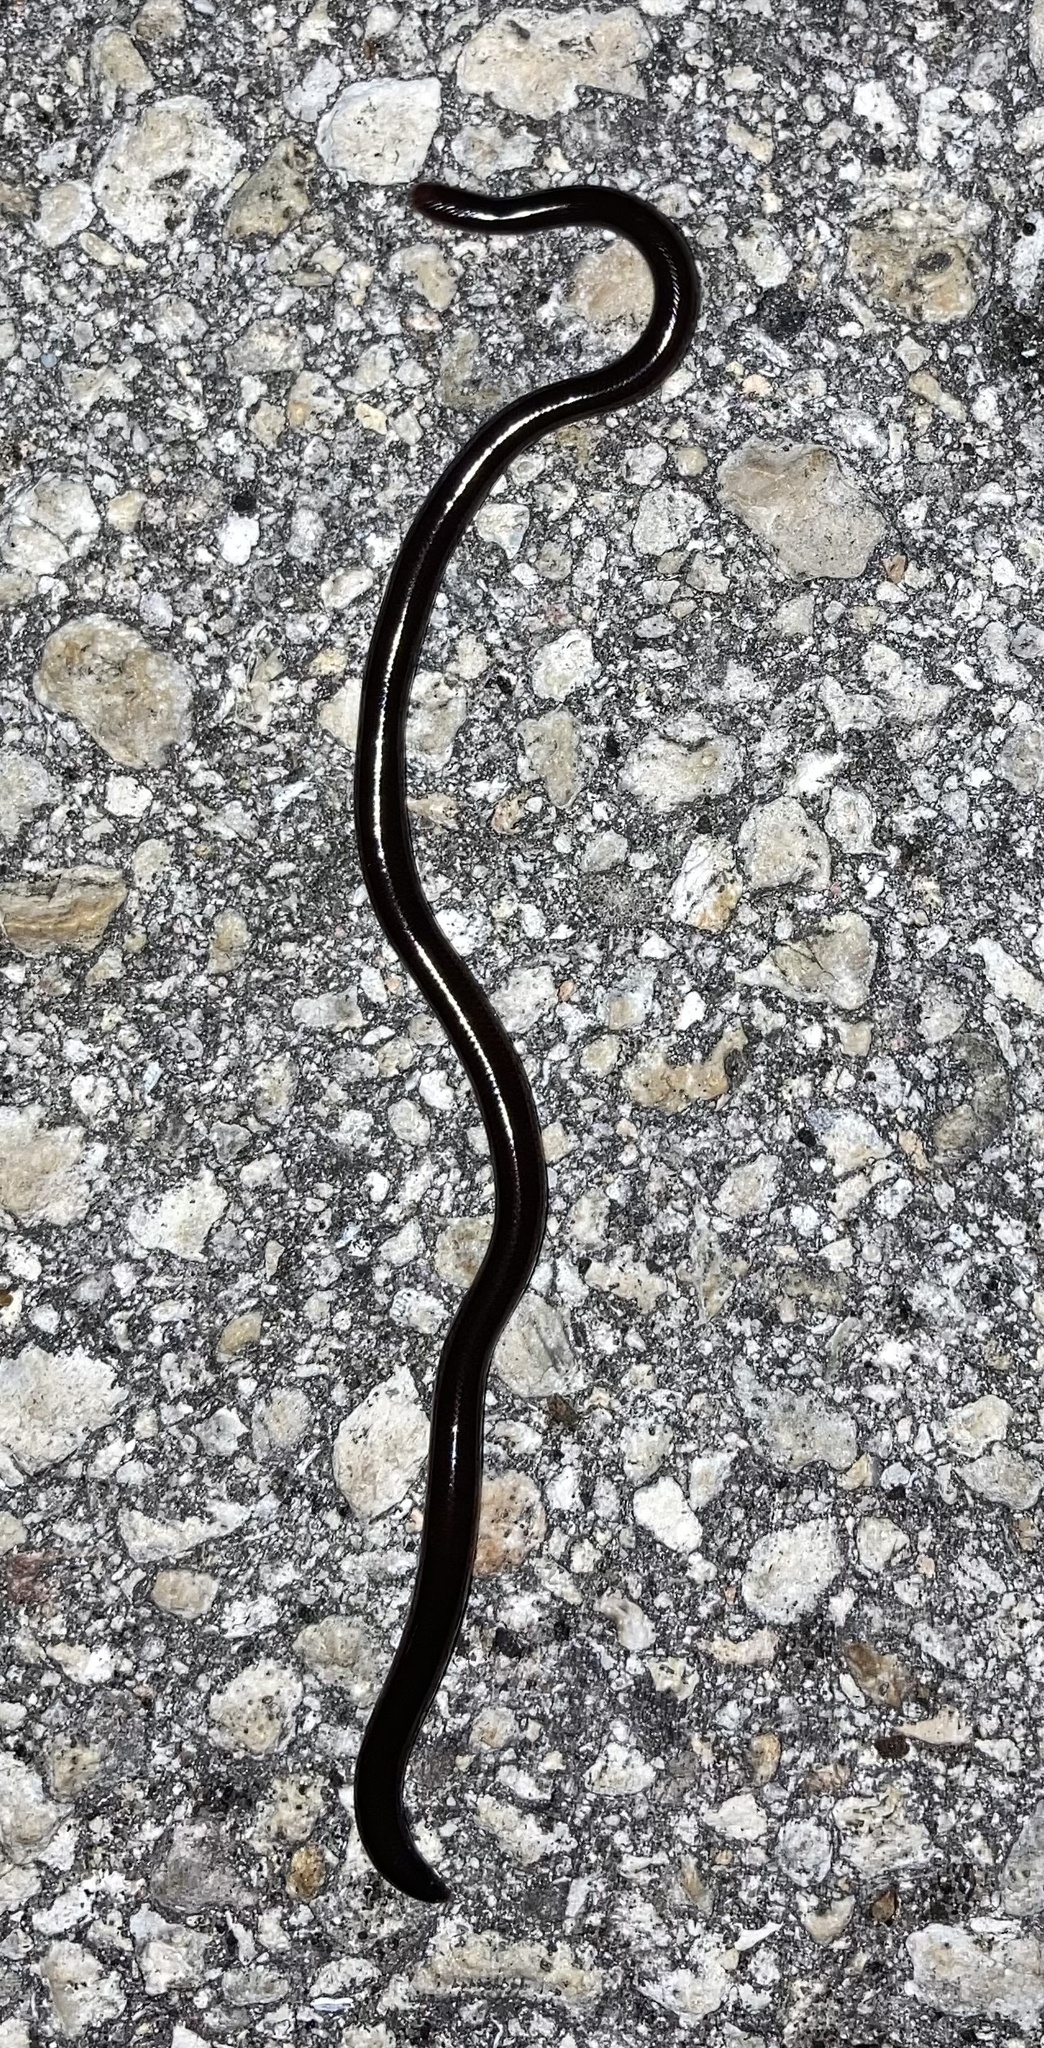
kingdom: Animalia
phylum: Chordata
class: Squamata
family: Typhlopidae
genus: Indotyphlops
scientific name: Indotyphlops braminus
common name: Brahminy blindsnake
